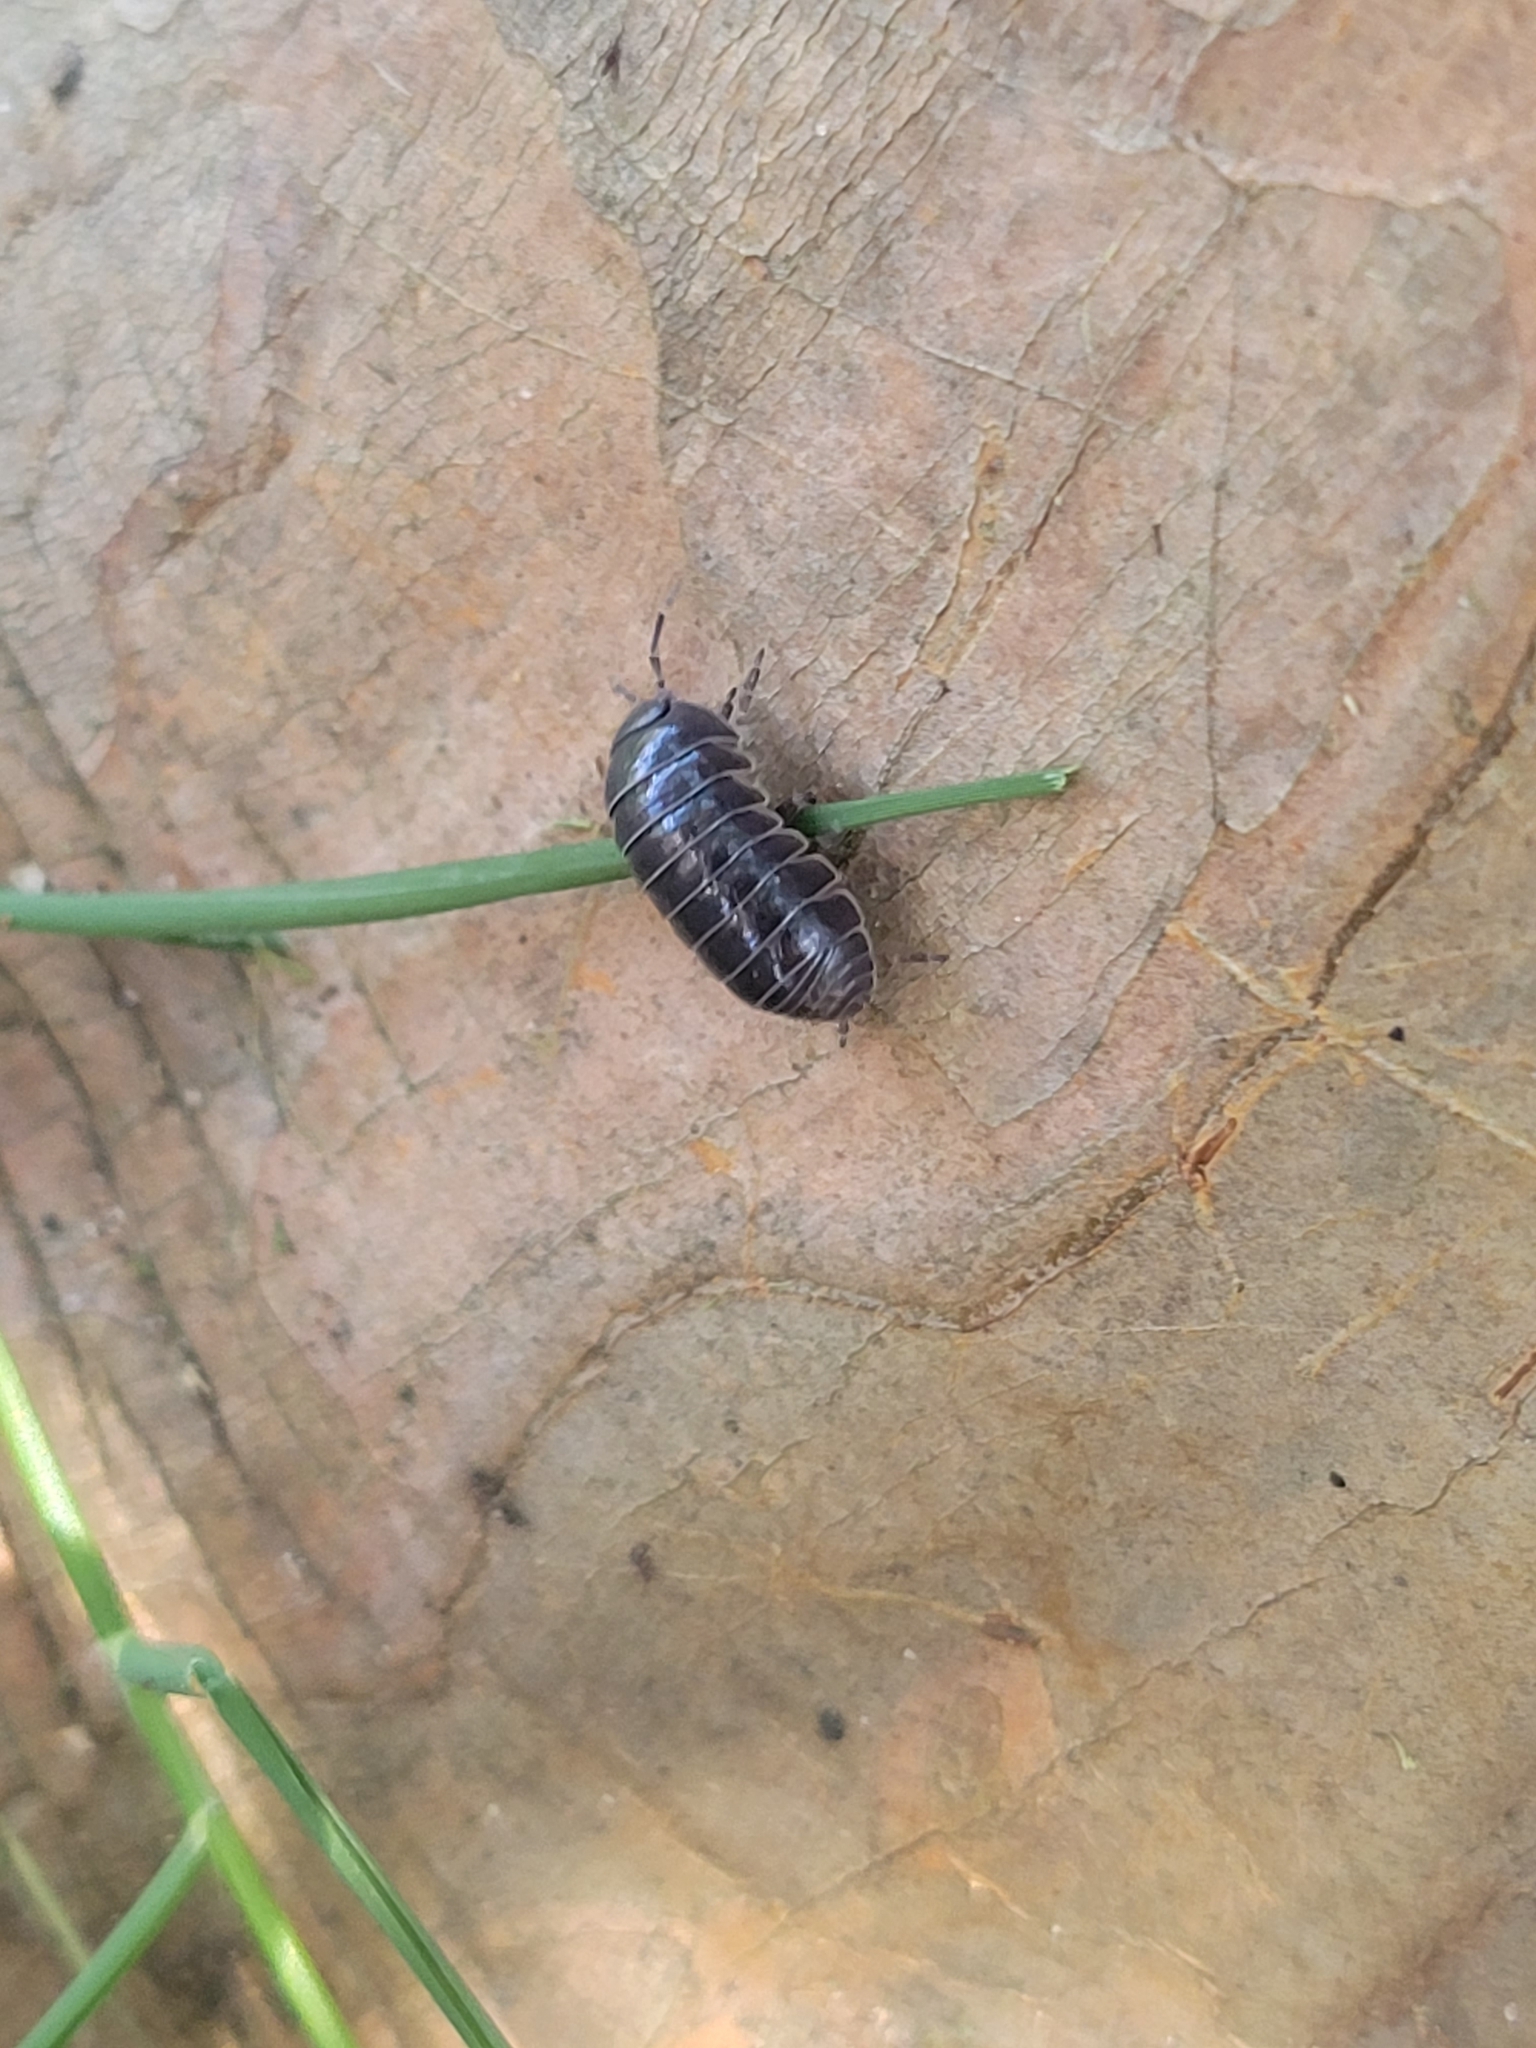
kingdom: Animalia
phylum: Arthropoda
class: Malacostraca
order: Isopoda
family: Armadillidiidae
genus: Armadillidium
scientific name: Armadillidium vulgare
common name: Common pill woodlouse
